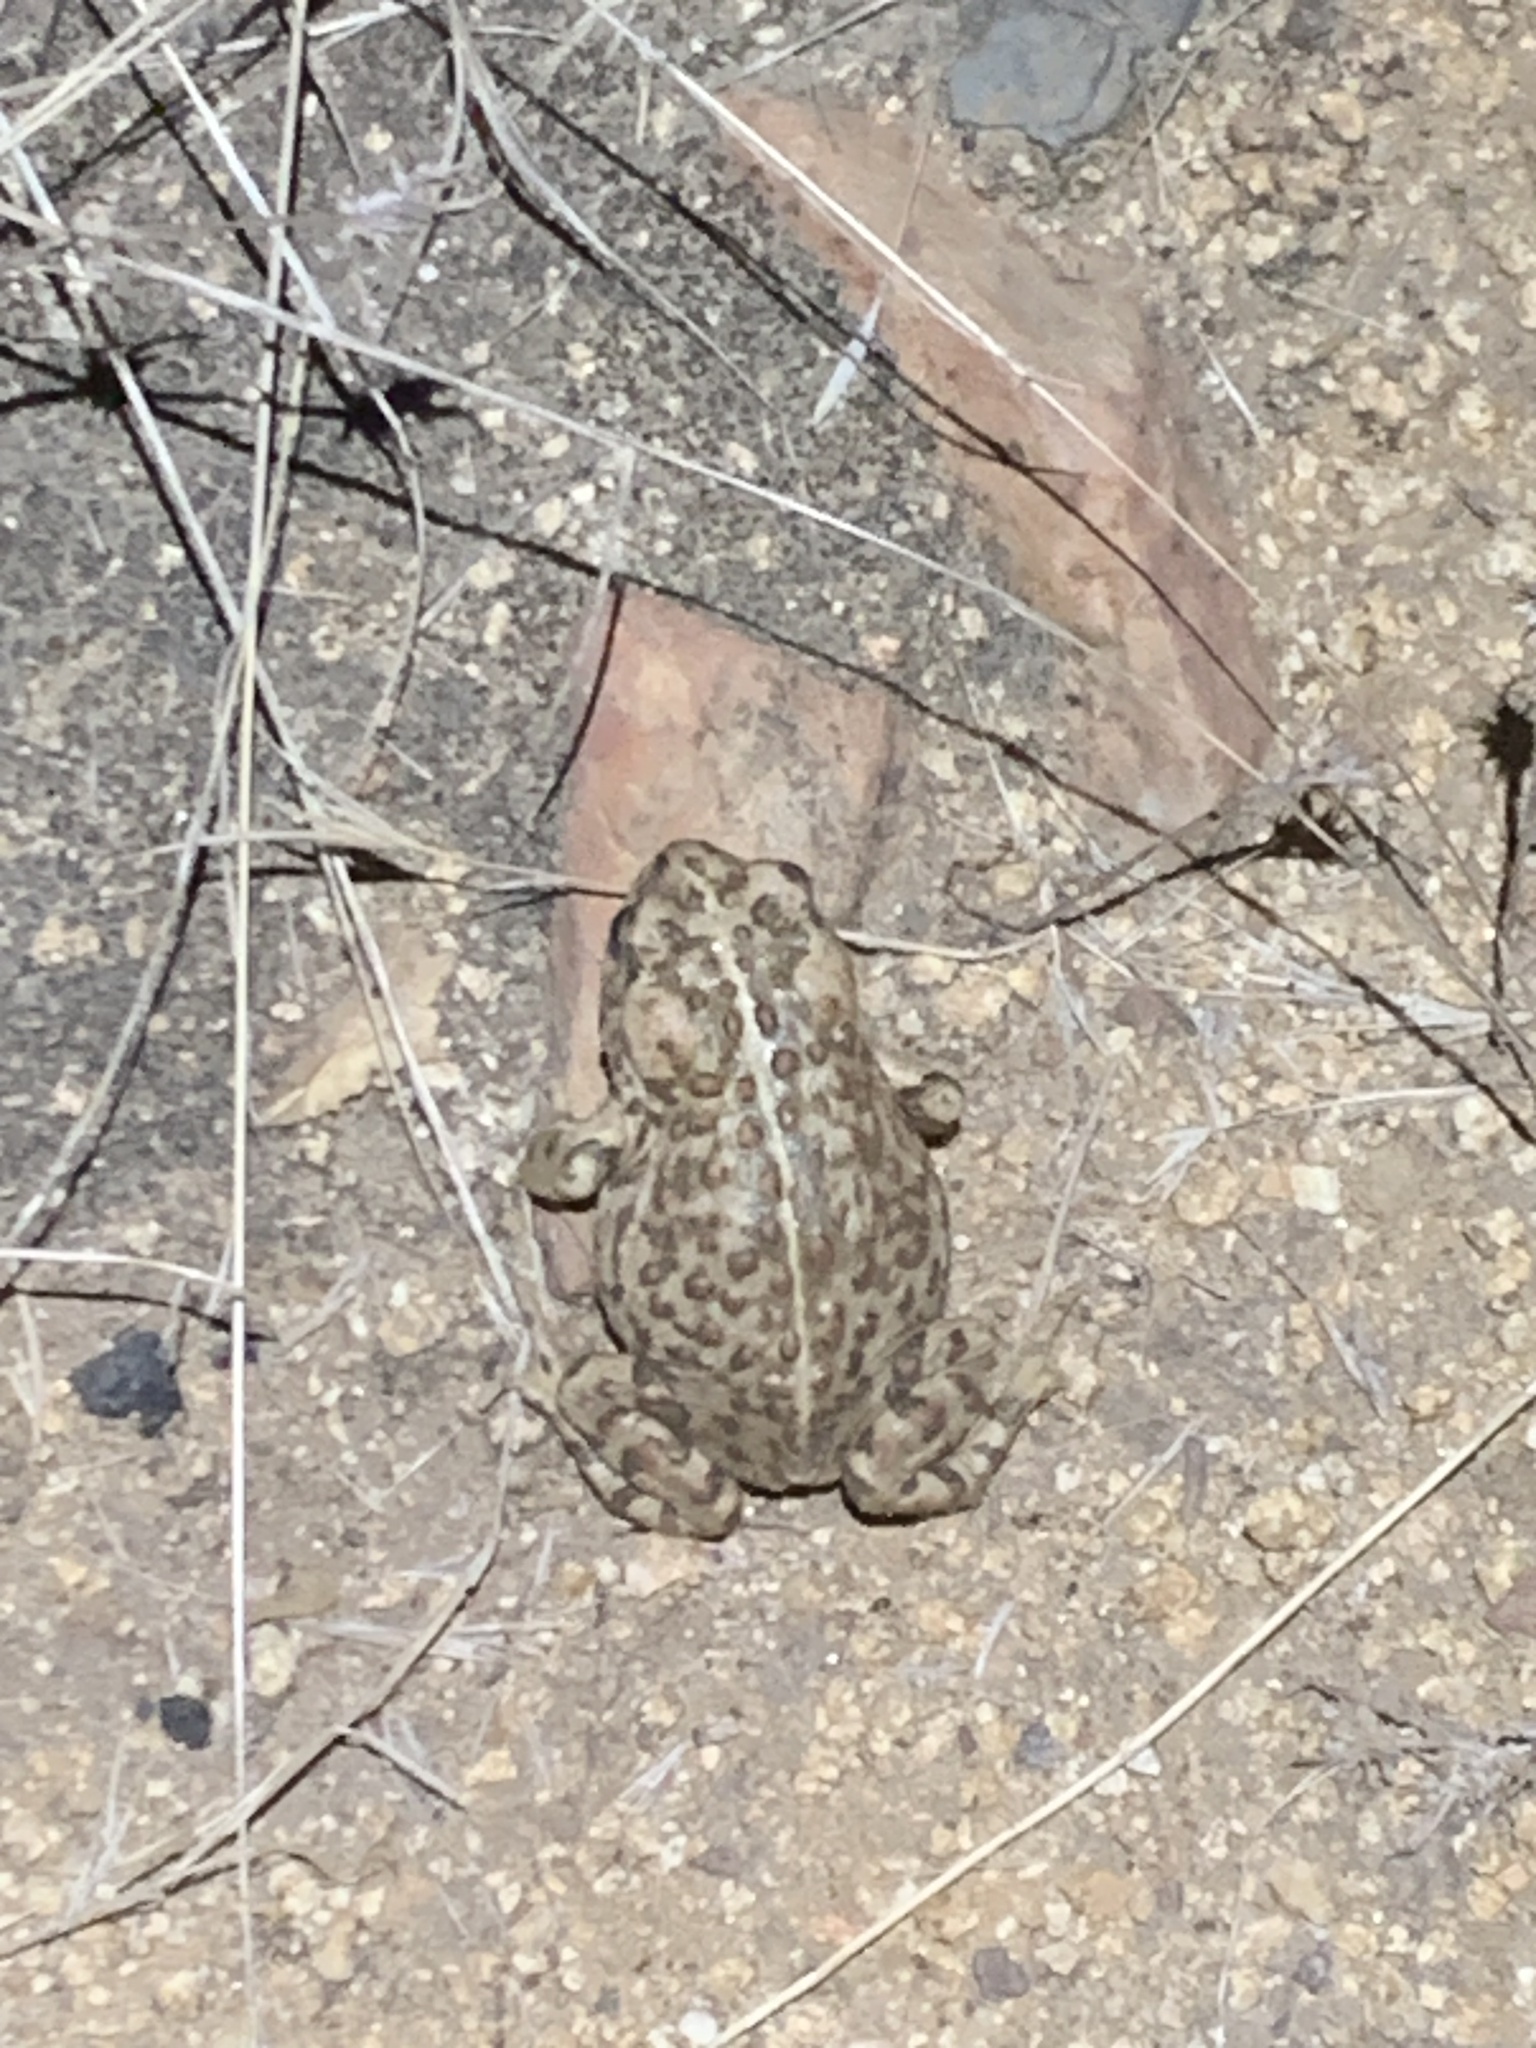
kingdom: Animalia
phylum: Chordata
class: Amphibia
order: Anura
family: Bufonidae
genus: Anaxyrus
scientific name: Anaxyrus boreas
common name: Western toad
